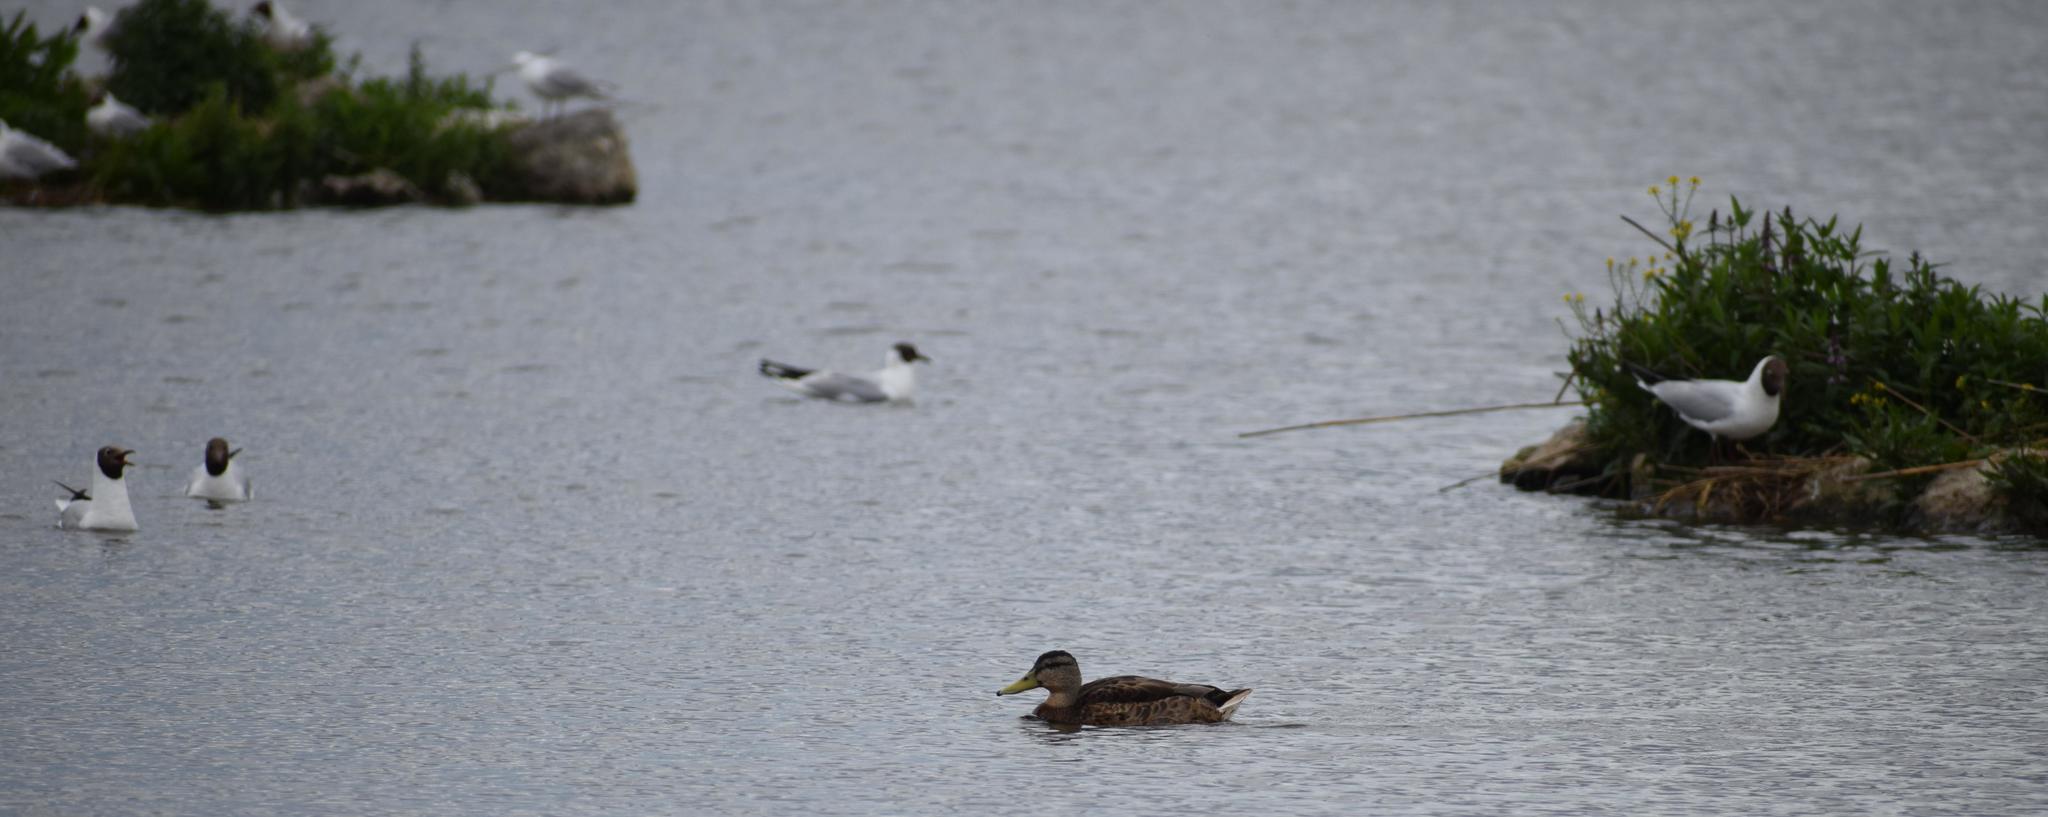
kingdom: Animalia
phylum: Chordata
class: Aves
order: Anseriformes
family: Anatidae
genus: Anas
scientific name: Anas platyrhynchos
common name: Mallard
